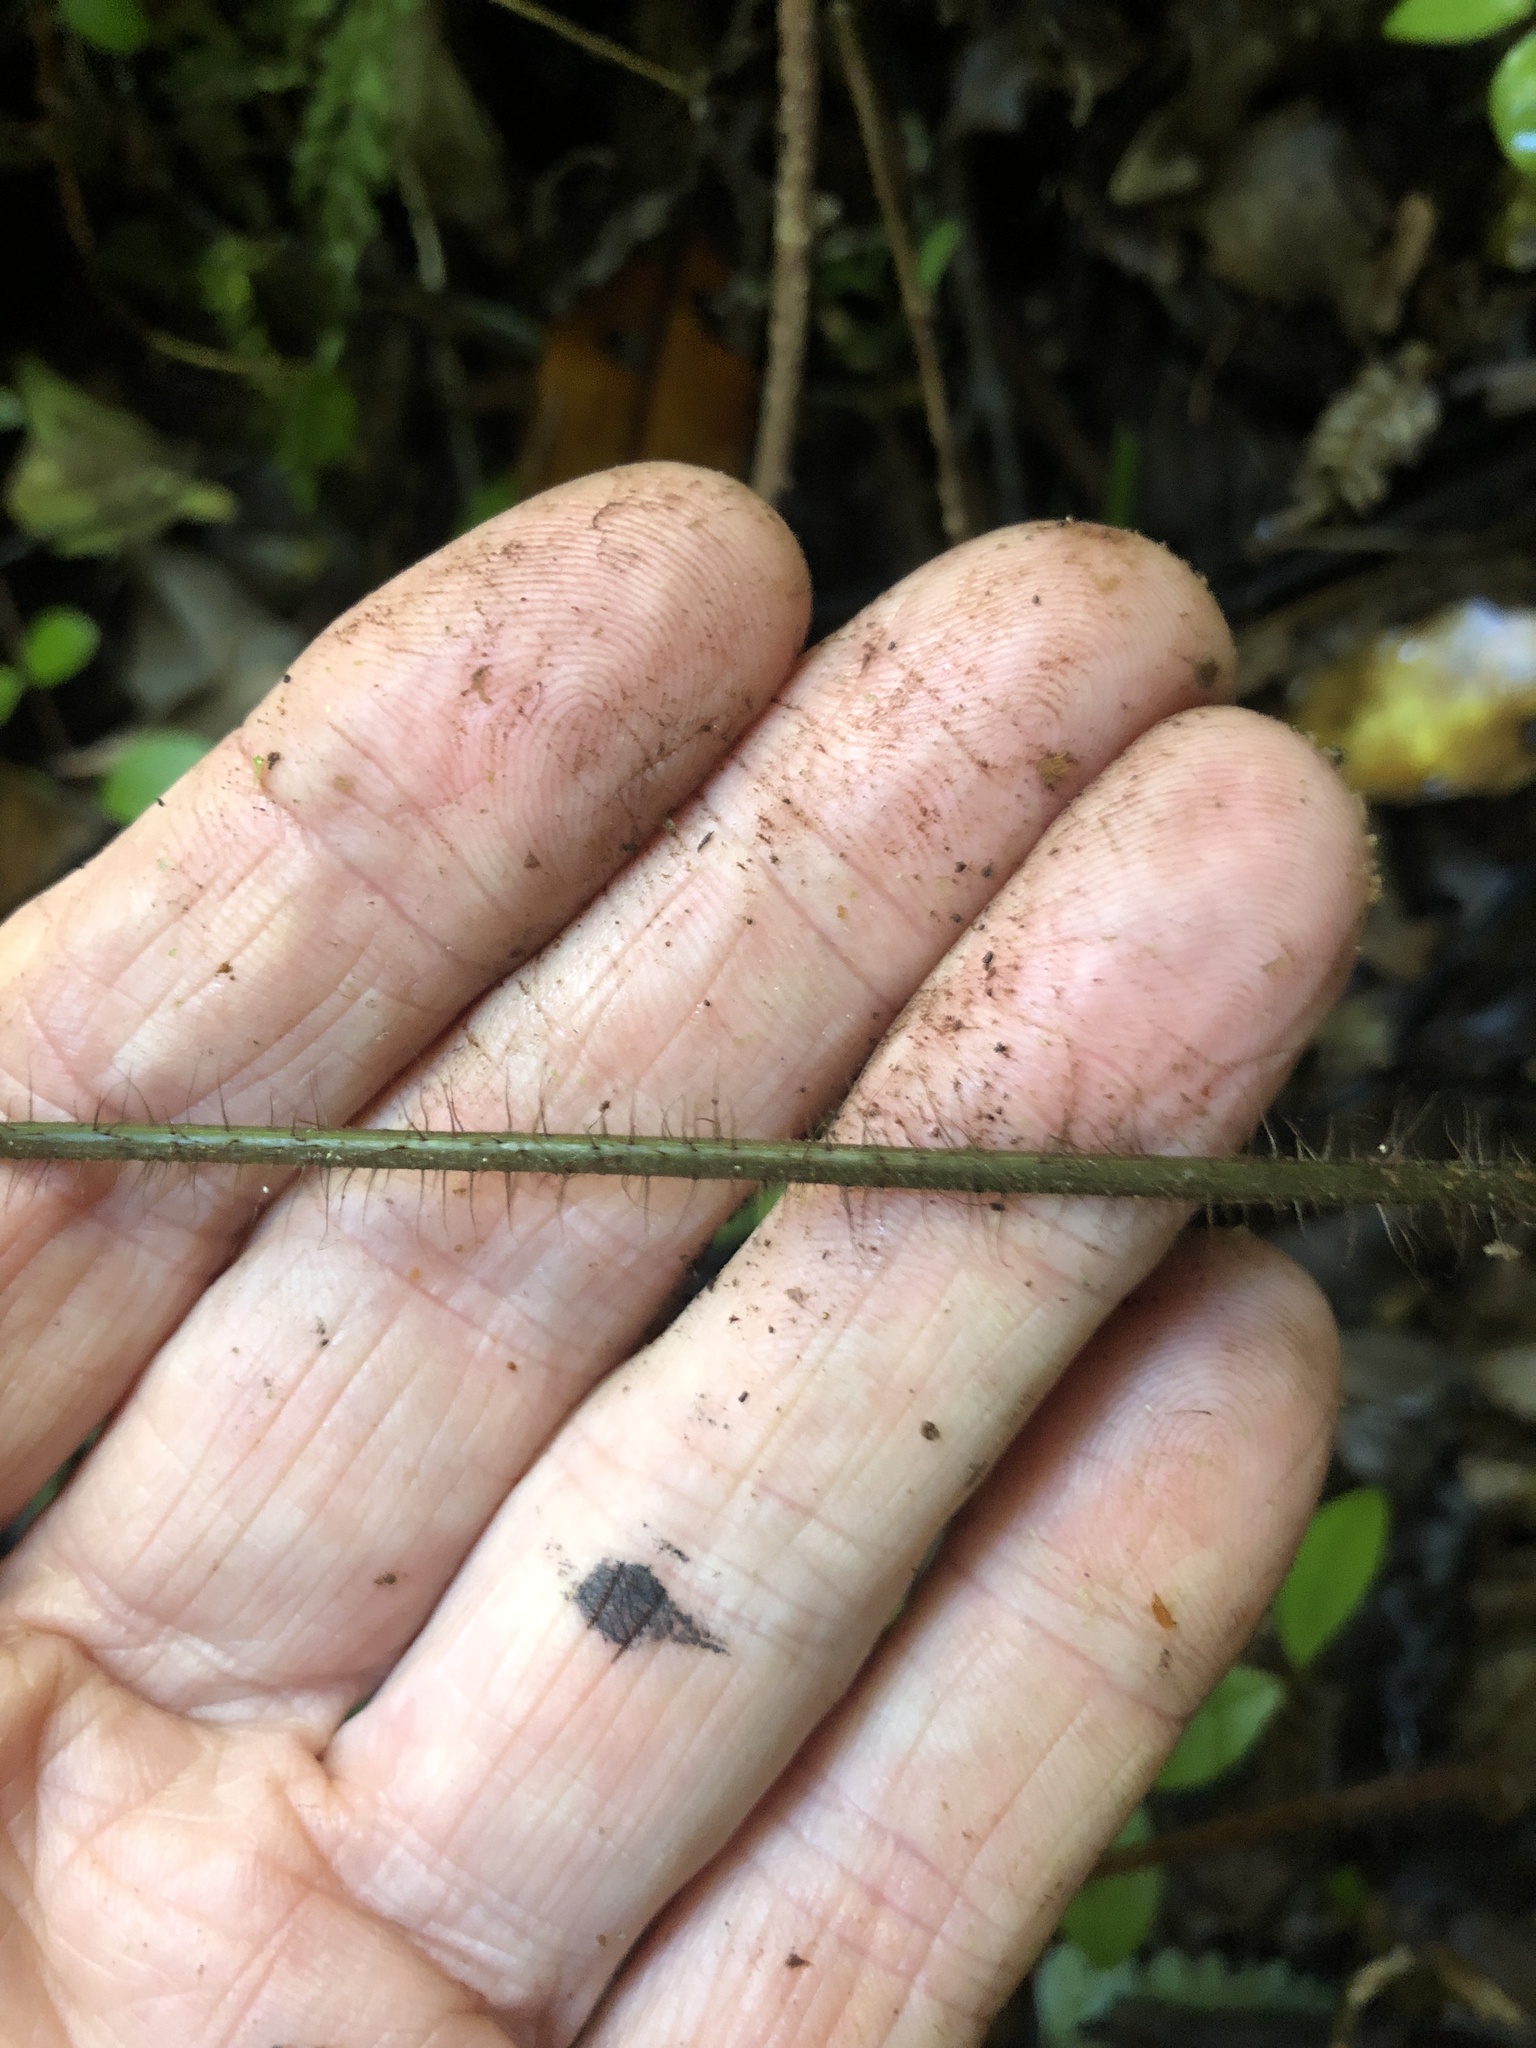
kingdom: Plantae
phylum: Tracheophyta
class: Polypodiopsida
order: Polypodiales
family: Dryopteridaceae
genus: Lastreopsis
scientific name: Lastreopsis hispida
